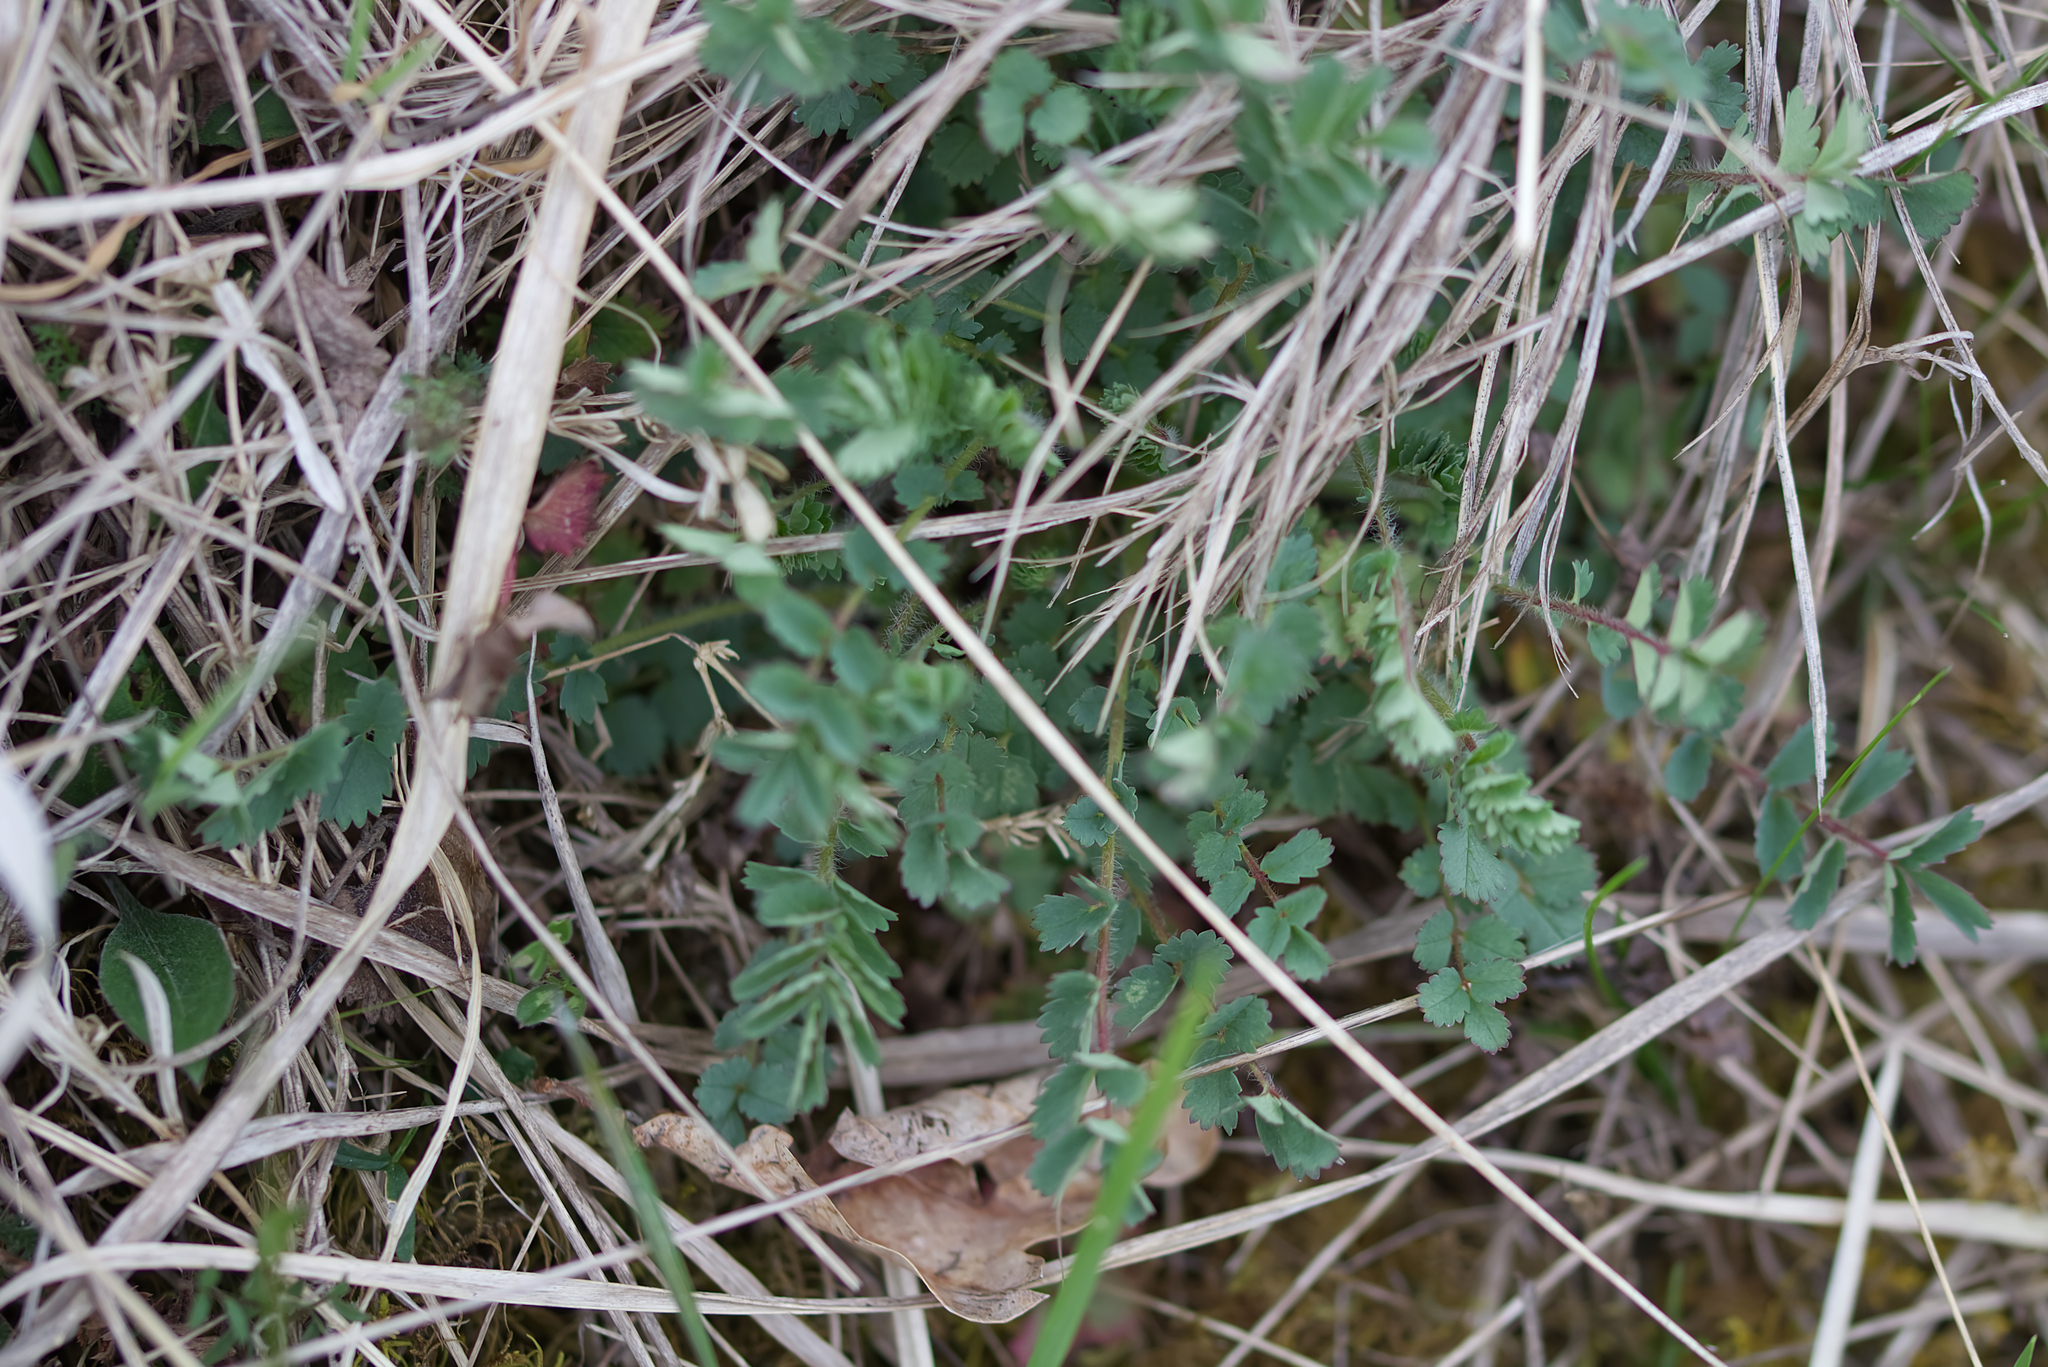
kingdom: Plantae
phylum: Tracheophyta
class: Magnoliopsida
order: Rosales
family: Rosaceae
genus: Poterium
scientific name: Poterium sanguisorba
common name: Salad burnet
